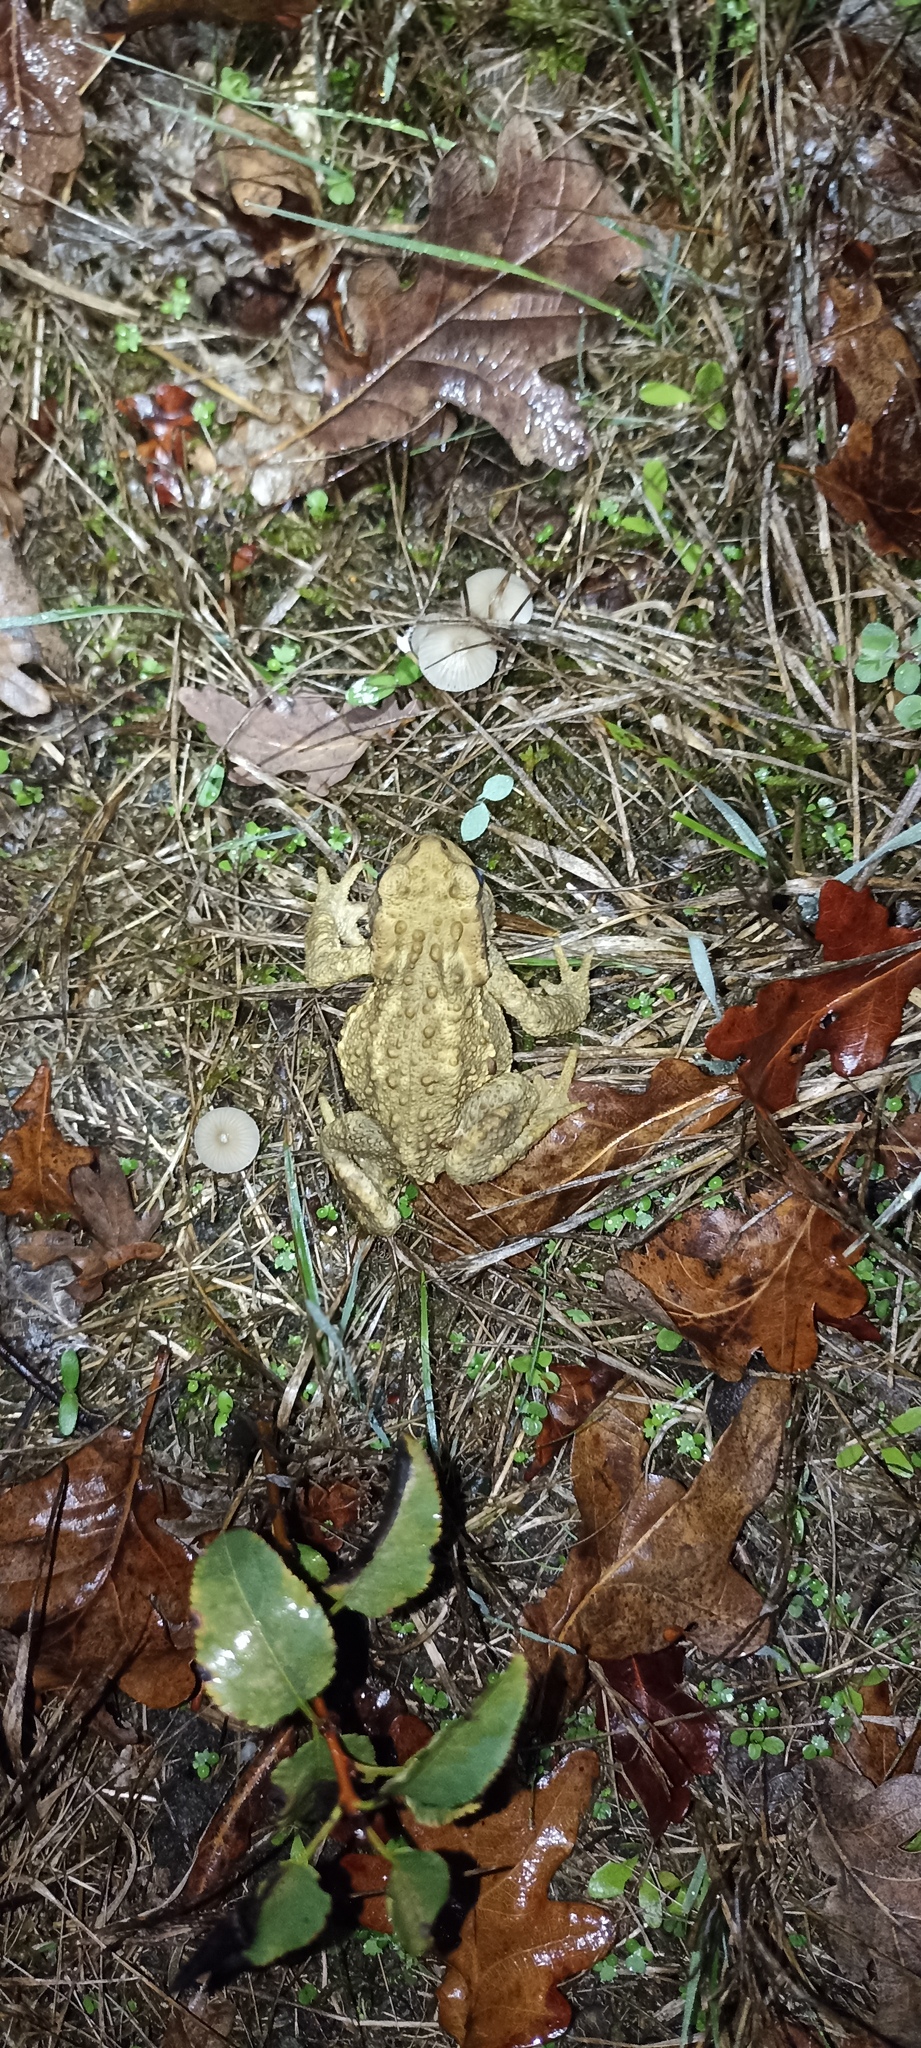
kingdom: Animalia
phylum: Chordata
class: Amphibia
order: Anura
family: Bufonidae
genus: Bufo
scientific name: Bufo spinosus
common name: Western common toad
